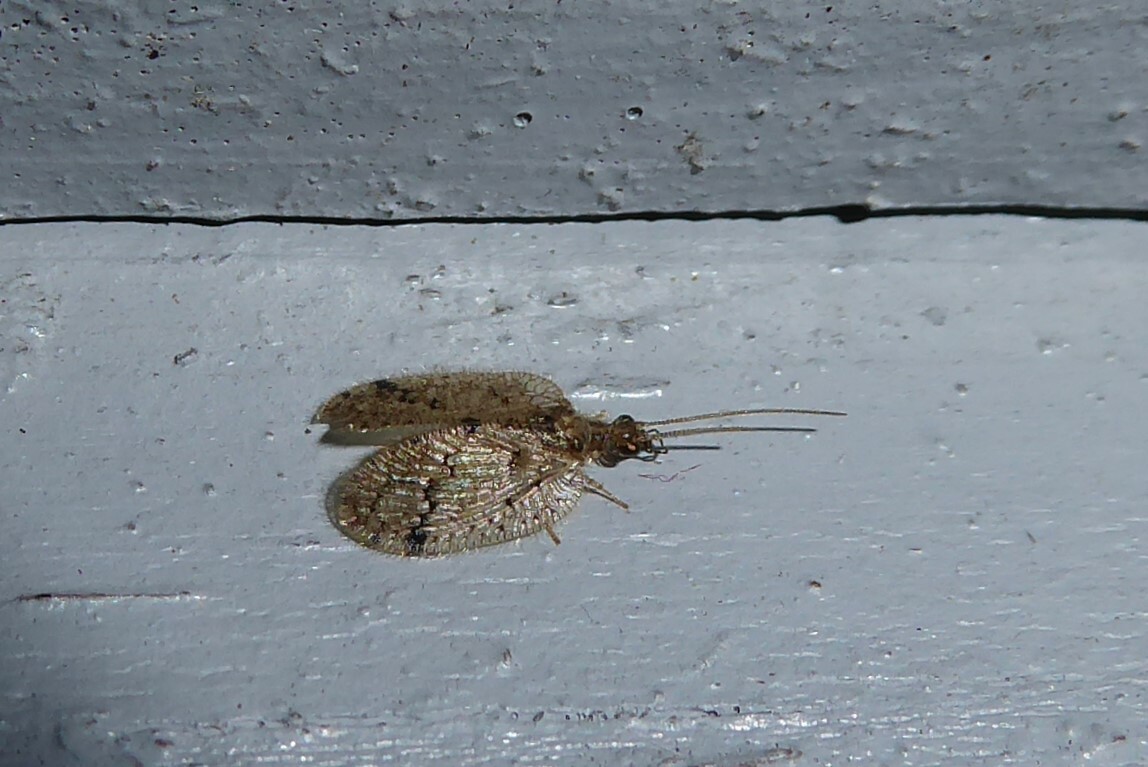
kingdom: Animalia
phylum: Arthropoda
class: Insecta
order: Neuroptera
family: Hemerobiidae
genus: Psectra
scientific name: Psectra nakaharai
